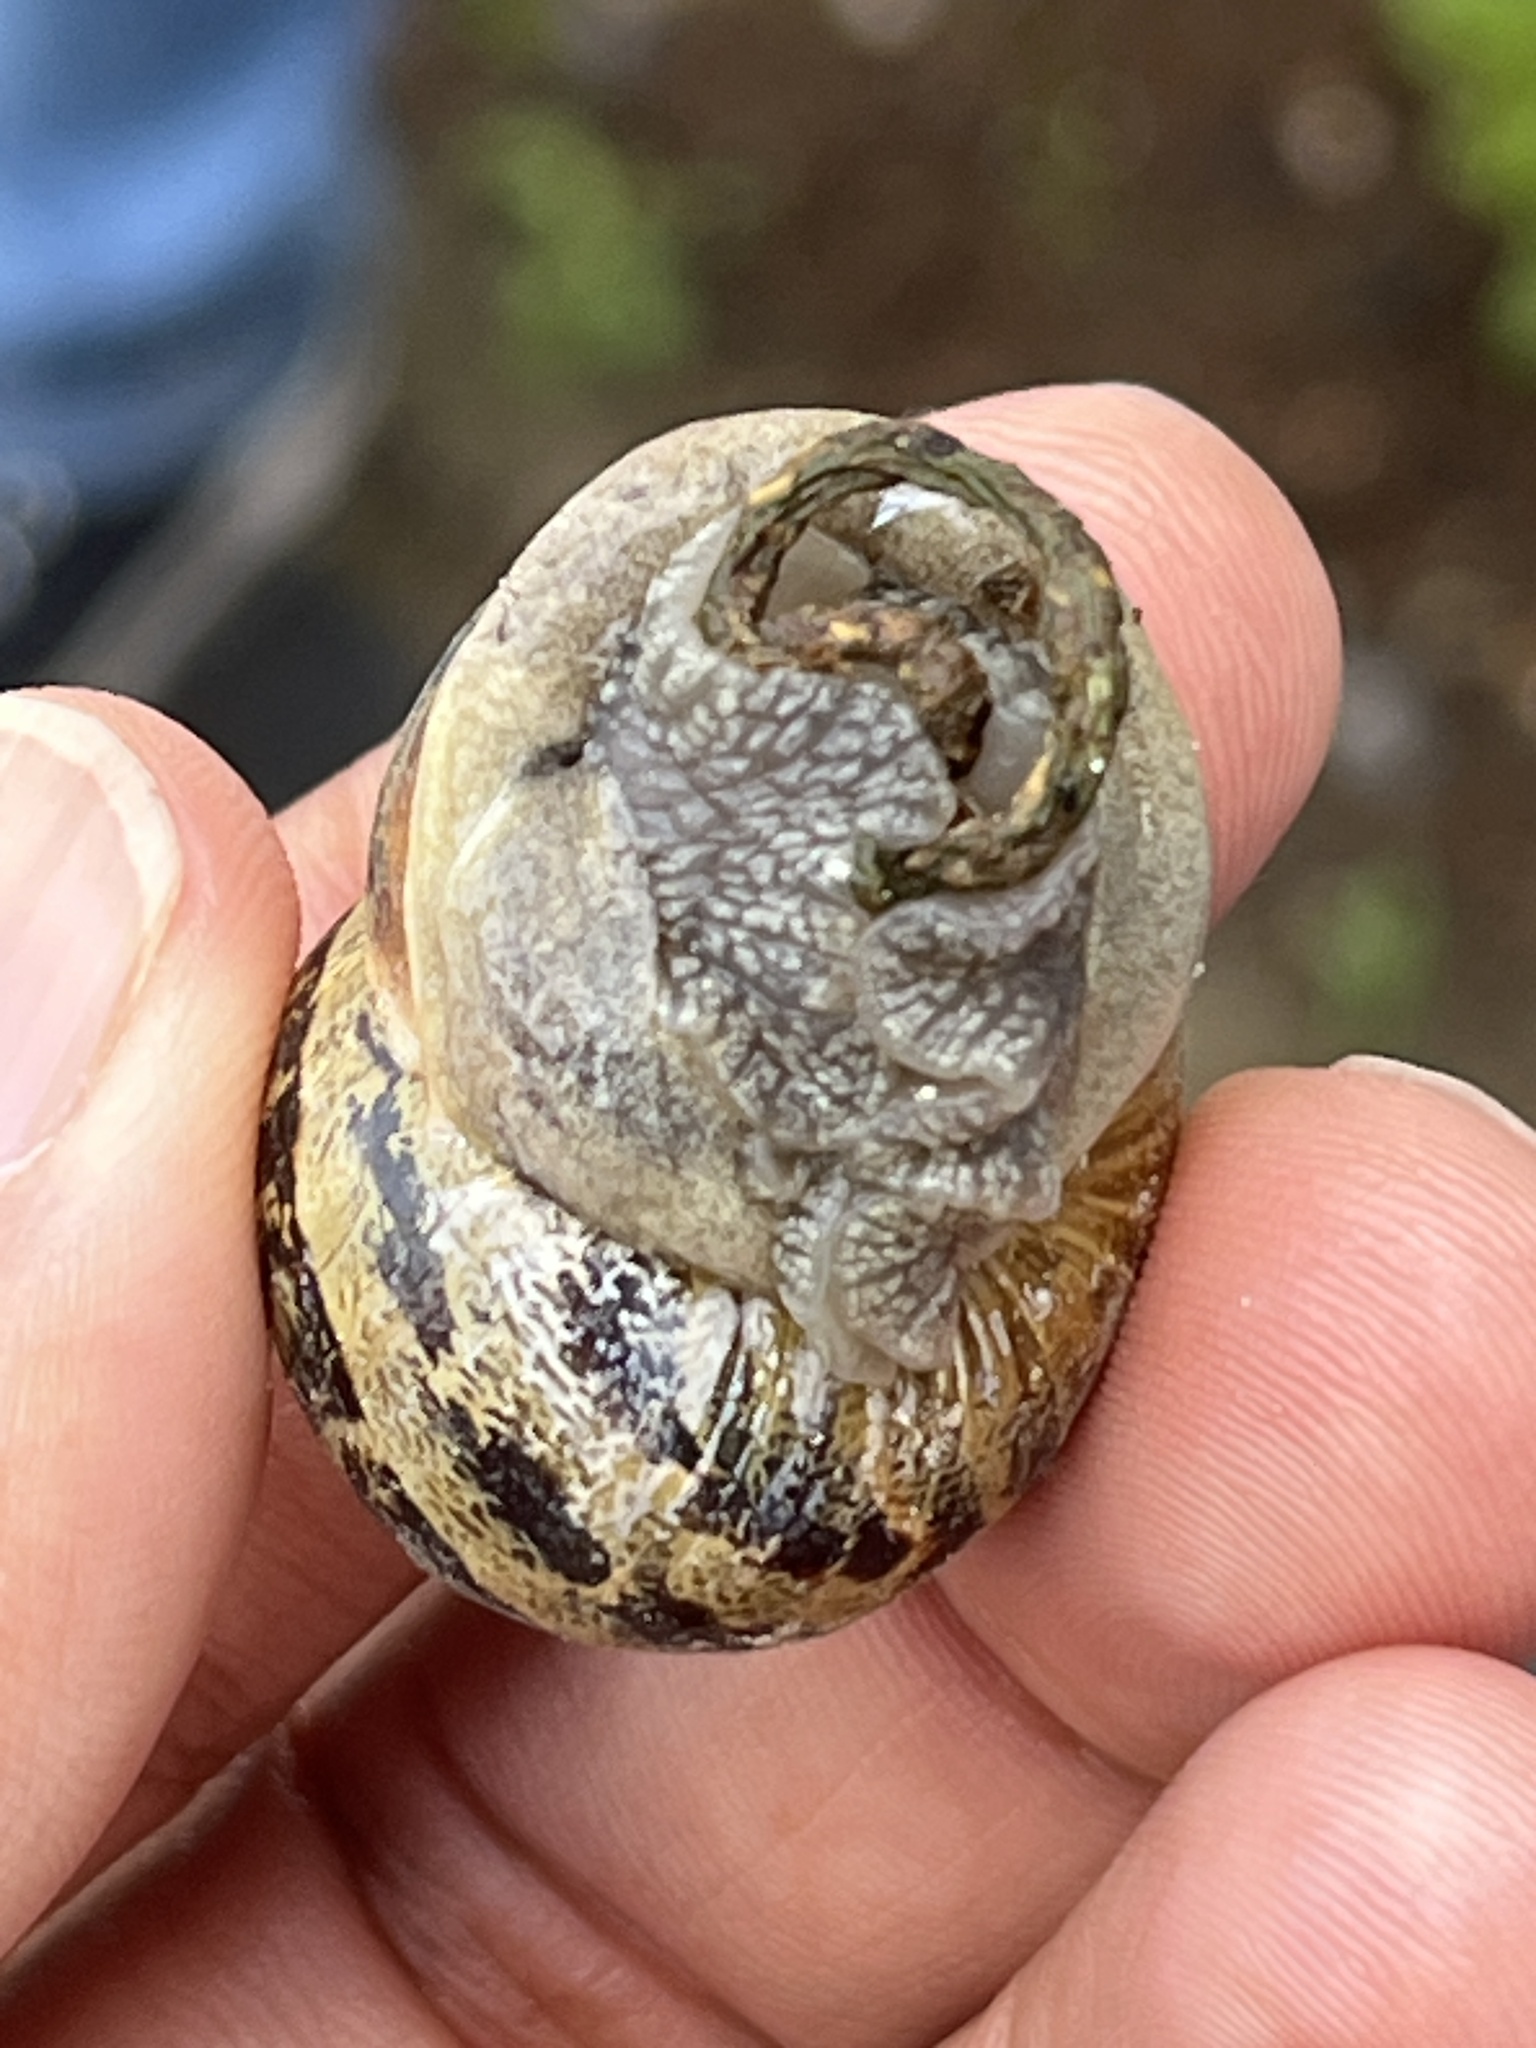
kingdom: Animalia
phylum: Mollusca
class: Gastropoda
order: Stylommatophora
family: Helicidae
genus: Cornu
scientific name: Cornu aspersum
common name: Brown garden snail
